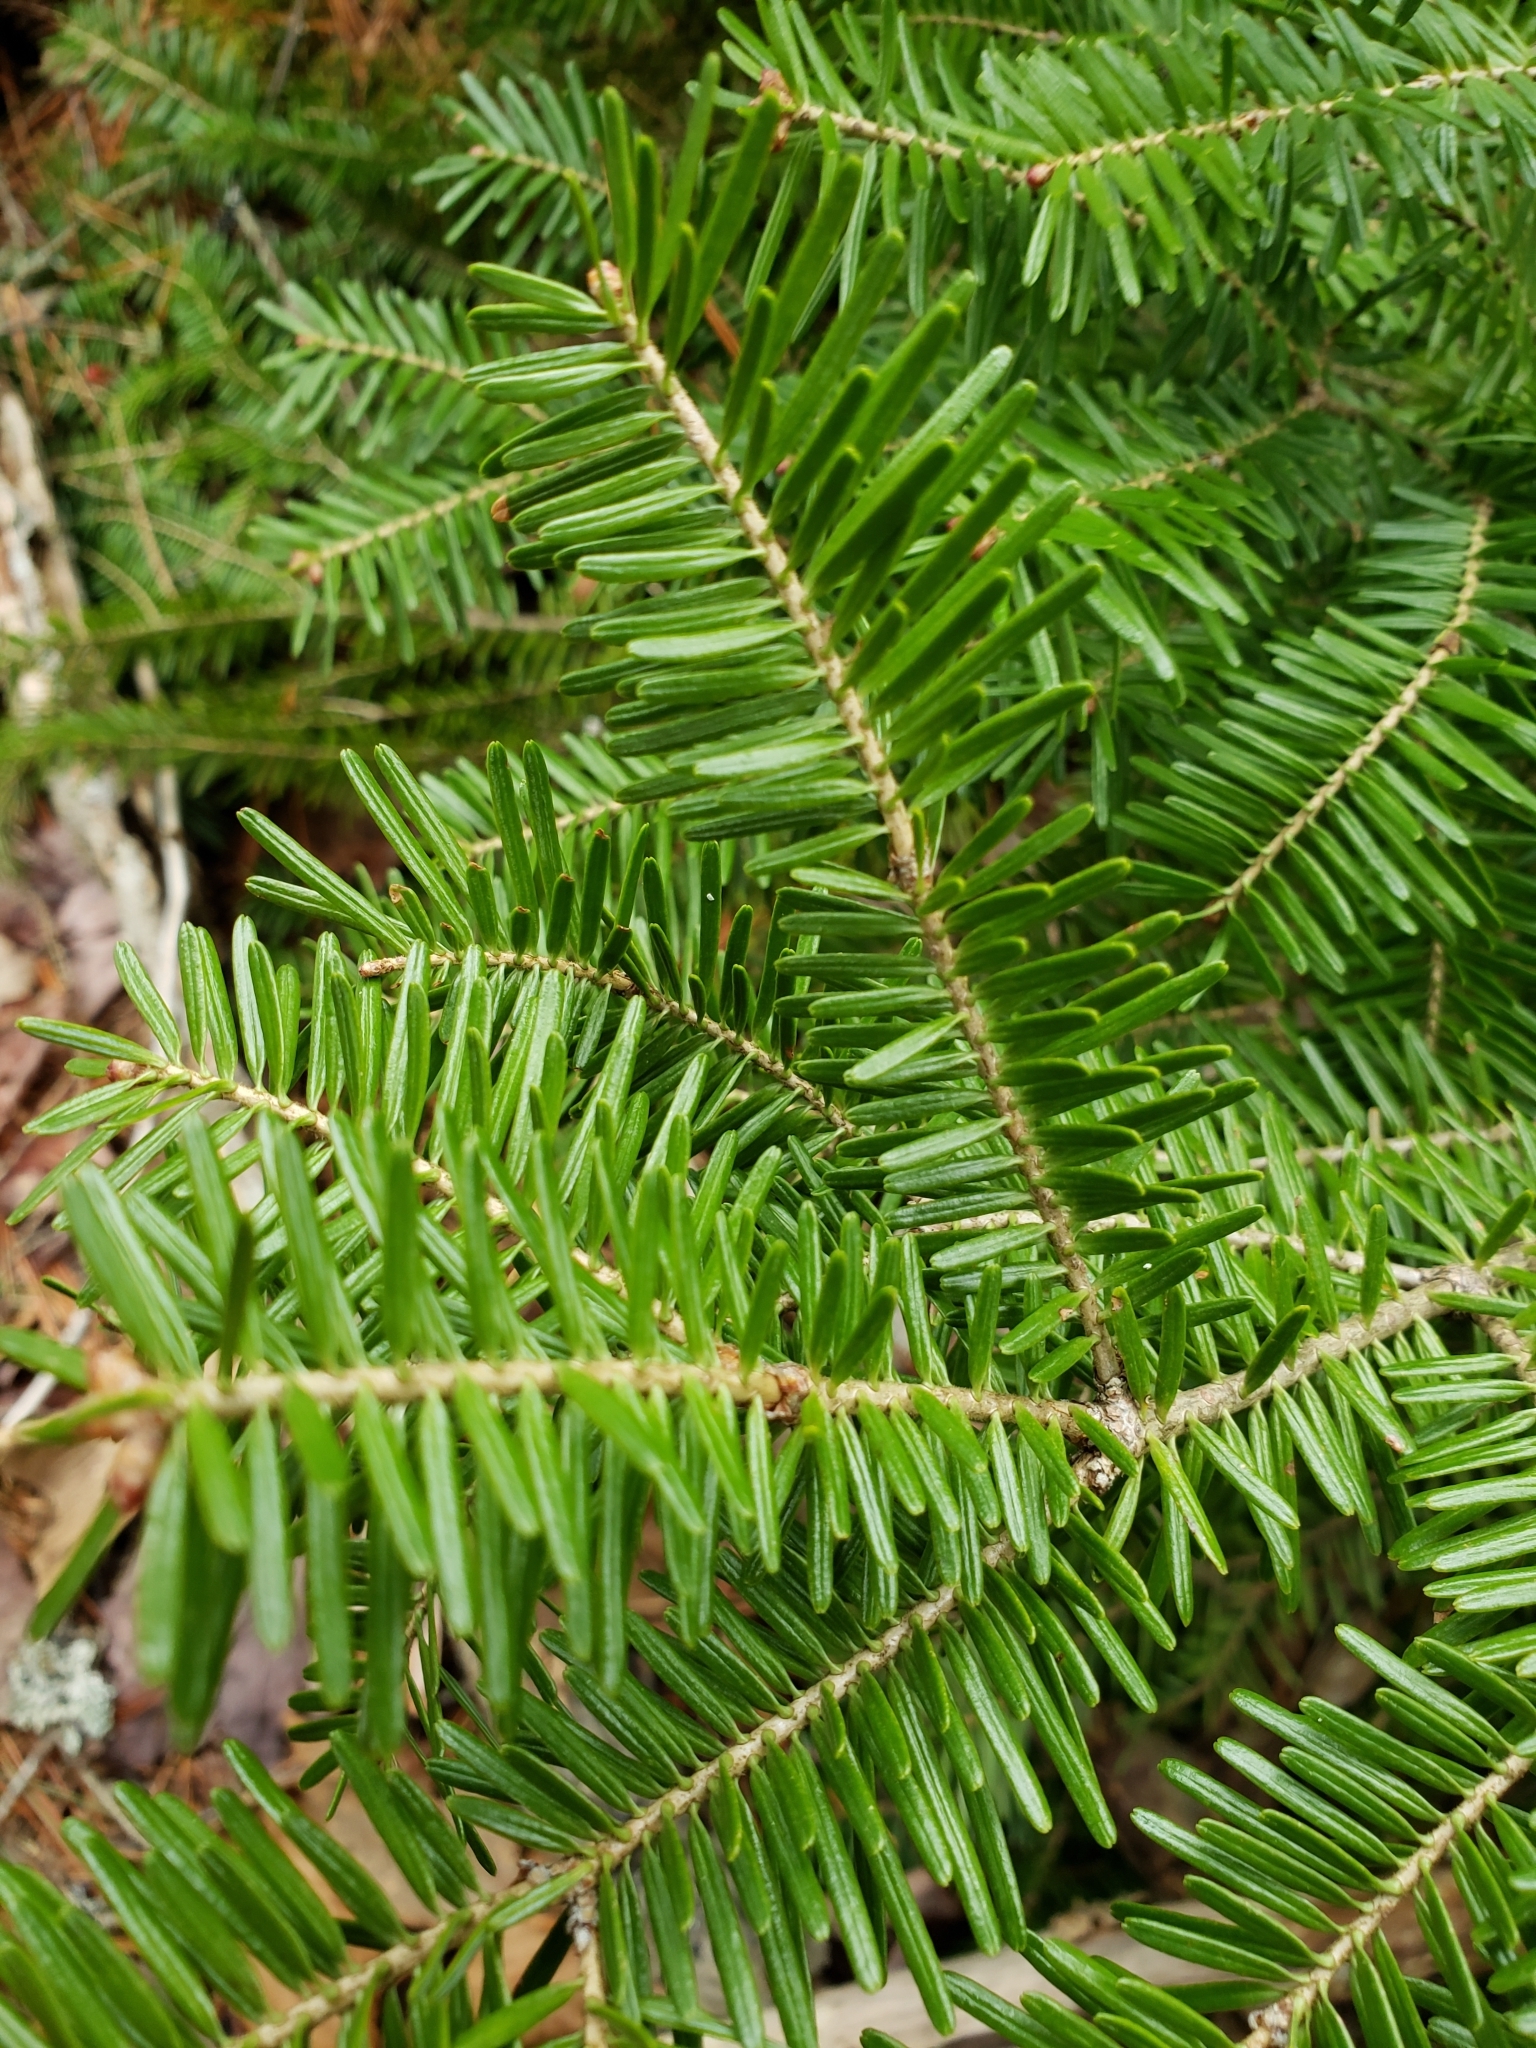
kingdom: Plantae
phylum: Tracheophyta
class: Pinopsida
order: Pinales
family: Pinaceae
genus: Abies
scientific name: Abies balsamea
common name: Balsam fir
